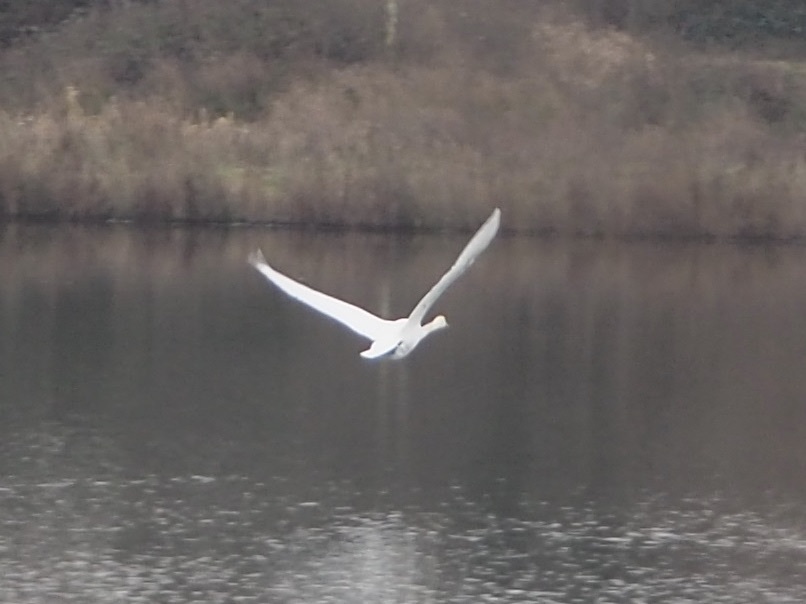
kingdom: Animalia
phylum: Chordata
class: Aves
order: Anseriformes
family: Anatidae
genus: Cygnus
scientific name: Cygnus olor
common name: Mute swan
